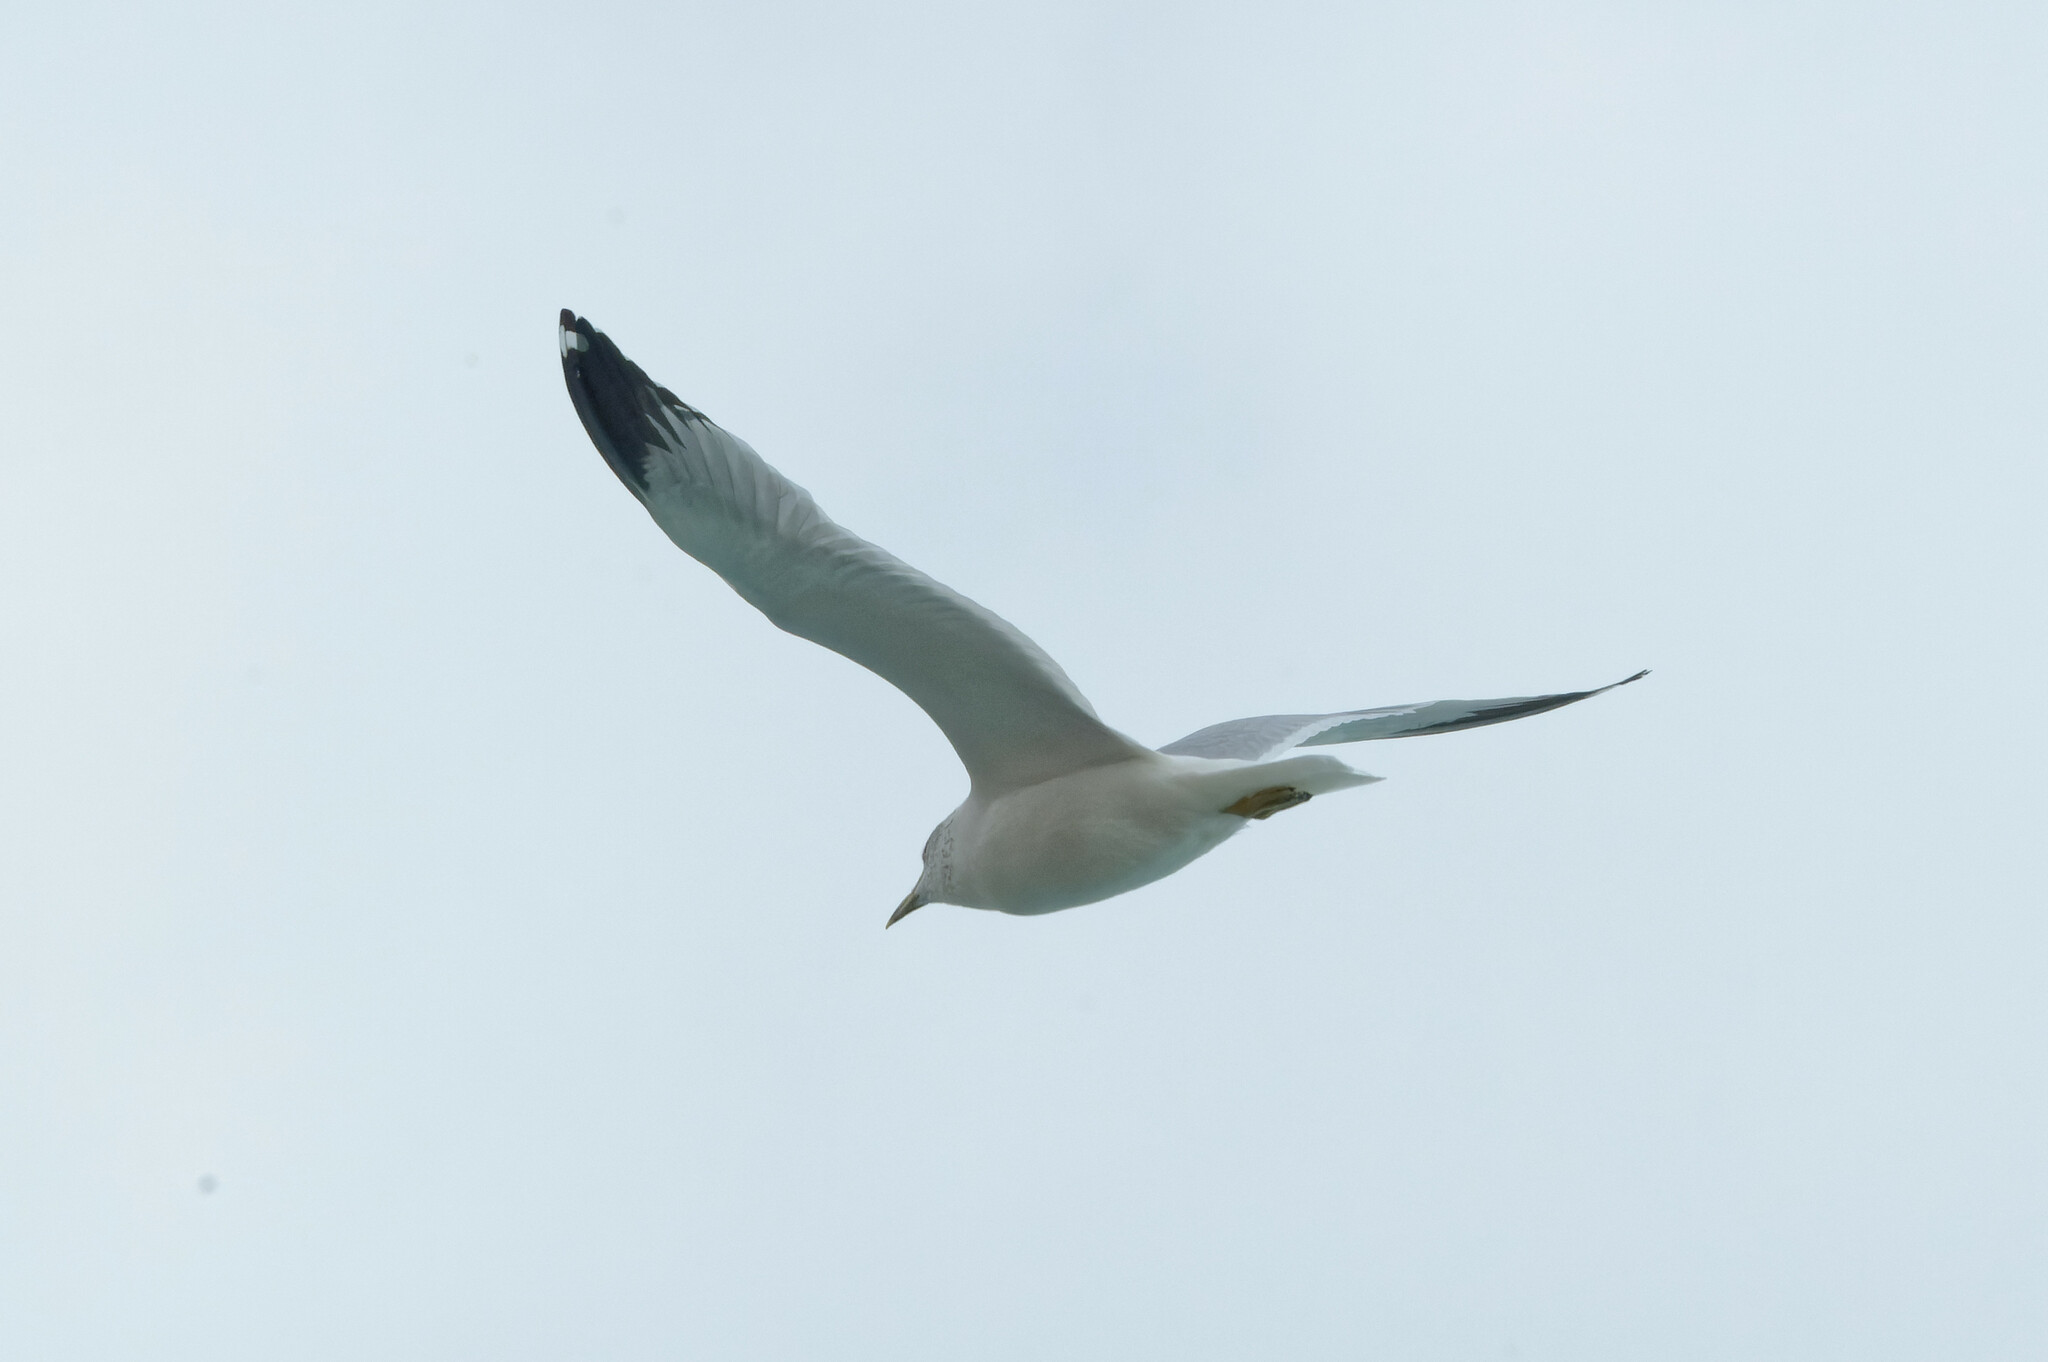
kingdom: Animalia
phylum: Chordata
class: Aves
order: Charadriiformes
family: Laridae
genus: Larus
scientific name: Larus delawarensis
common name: Ring-billed gull
